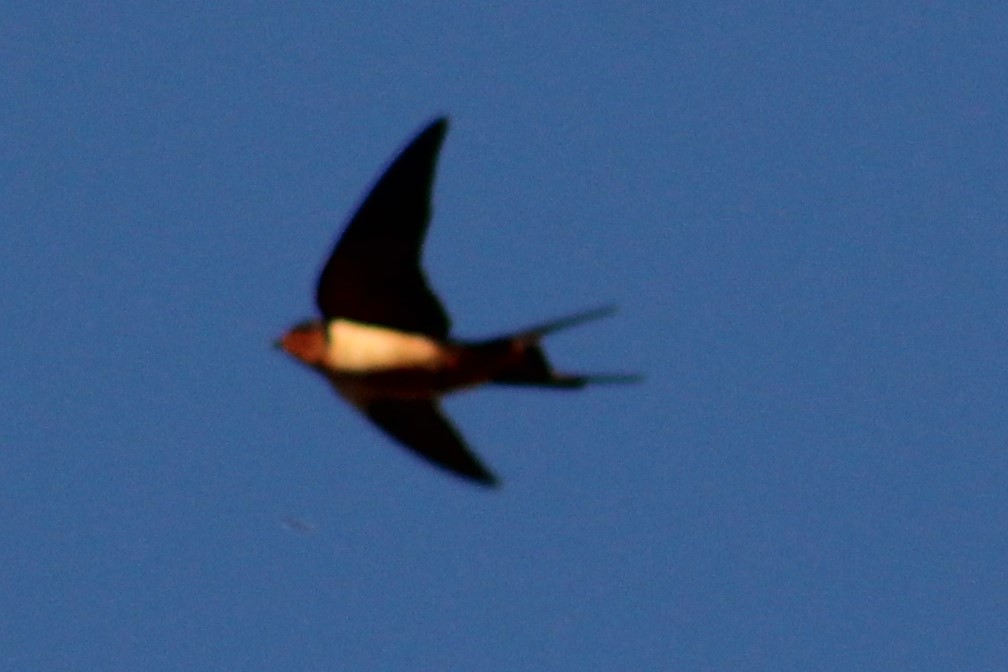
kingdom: Animalia
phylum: Chordata
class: Aves
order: Passeriformes
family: Hirundinidae
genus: Hirundo
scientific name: Hirundo rustica
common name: Barn swallow
